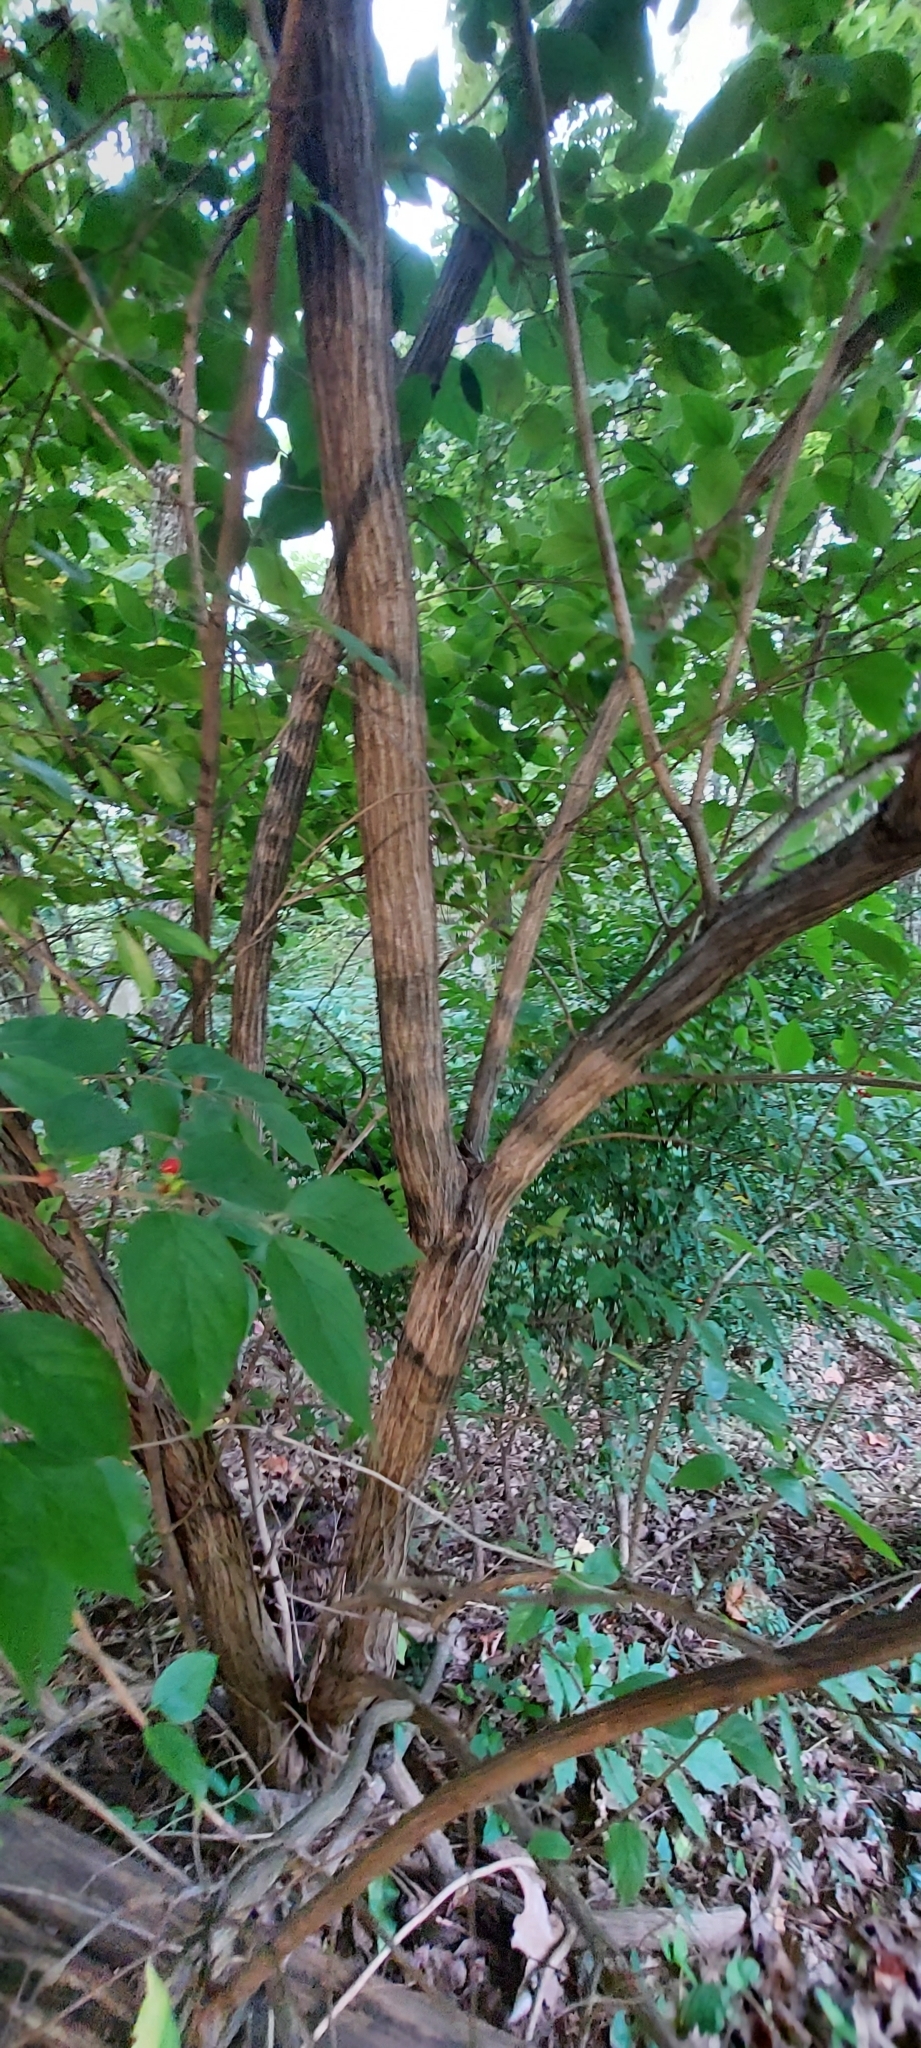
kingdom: Plantae
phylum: Tracheophyta
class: Magnoliopsida
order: Dipsacales
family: Caprifoliaceae
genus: Lonicera
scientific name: Lonicera maackii
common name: Amur honeysuckle
